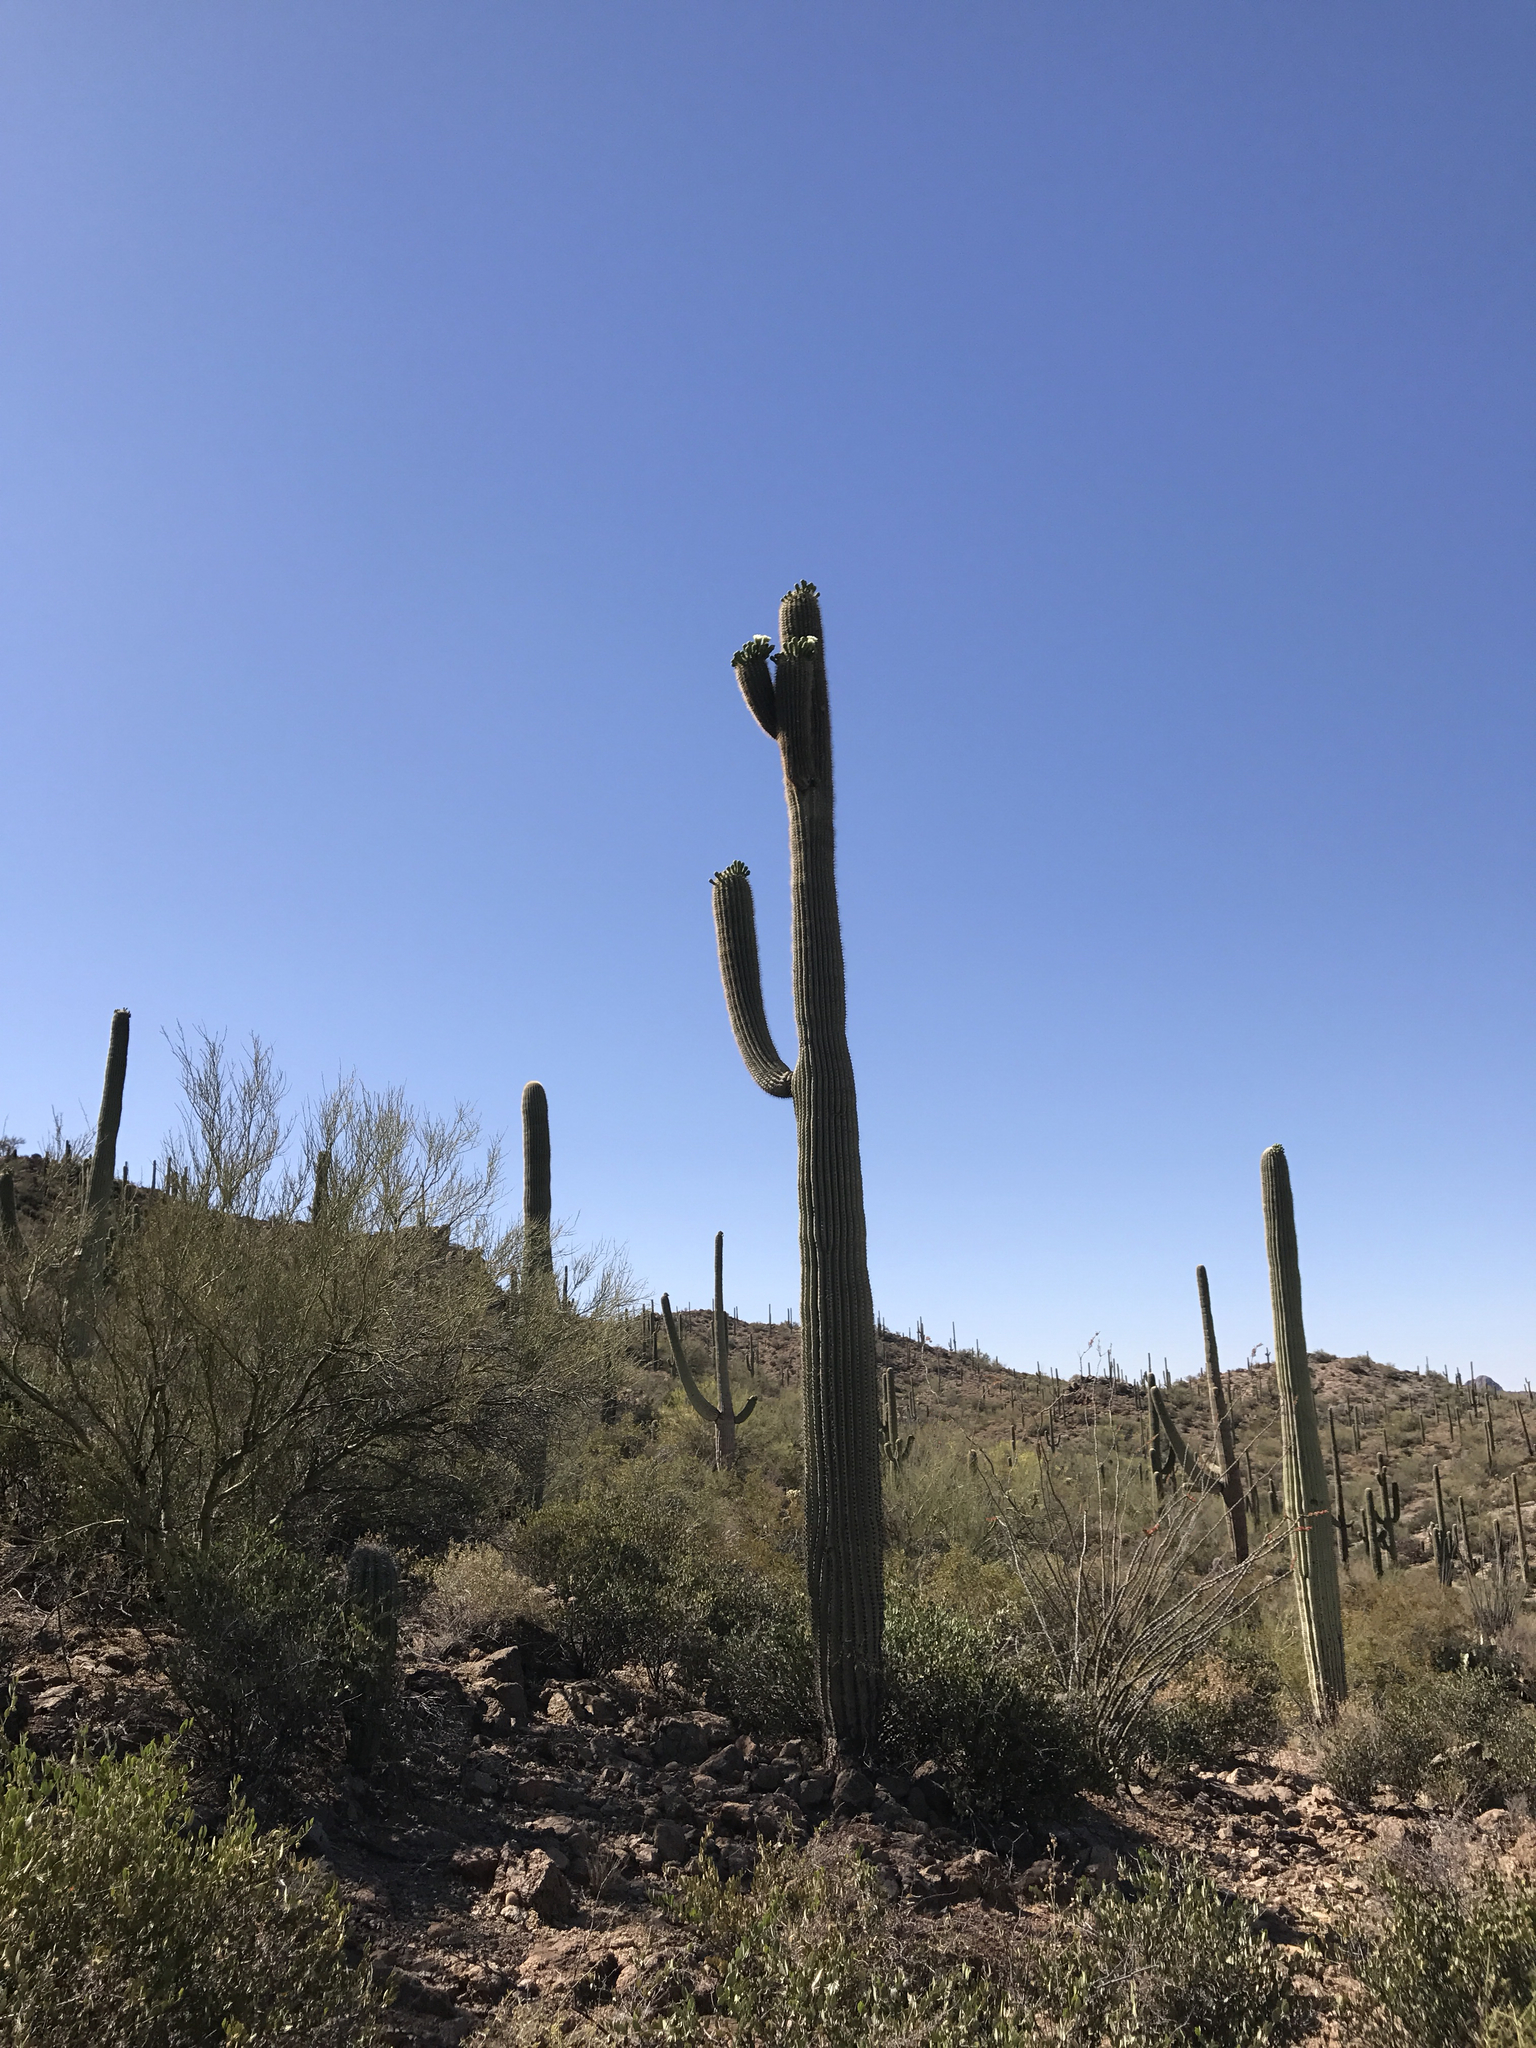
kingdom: Plantae
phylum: Tracheophyta
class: Magnoliopsida
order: Caryophyllales
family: Cactaceae
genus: Carnegiea
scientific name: Carnegiea gigantea
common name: Saguaro
